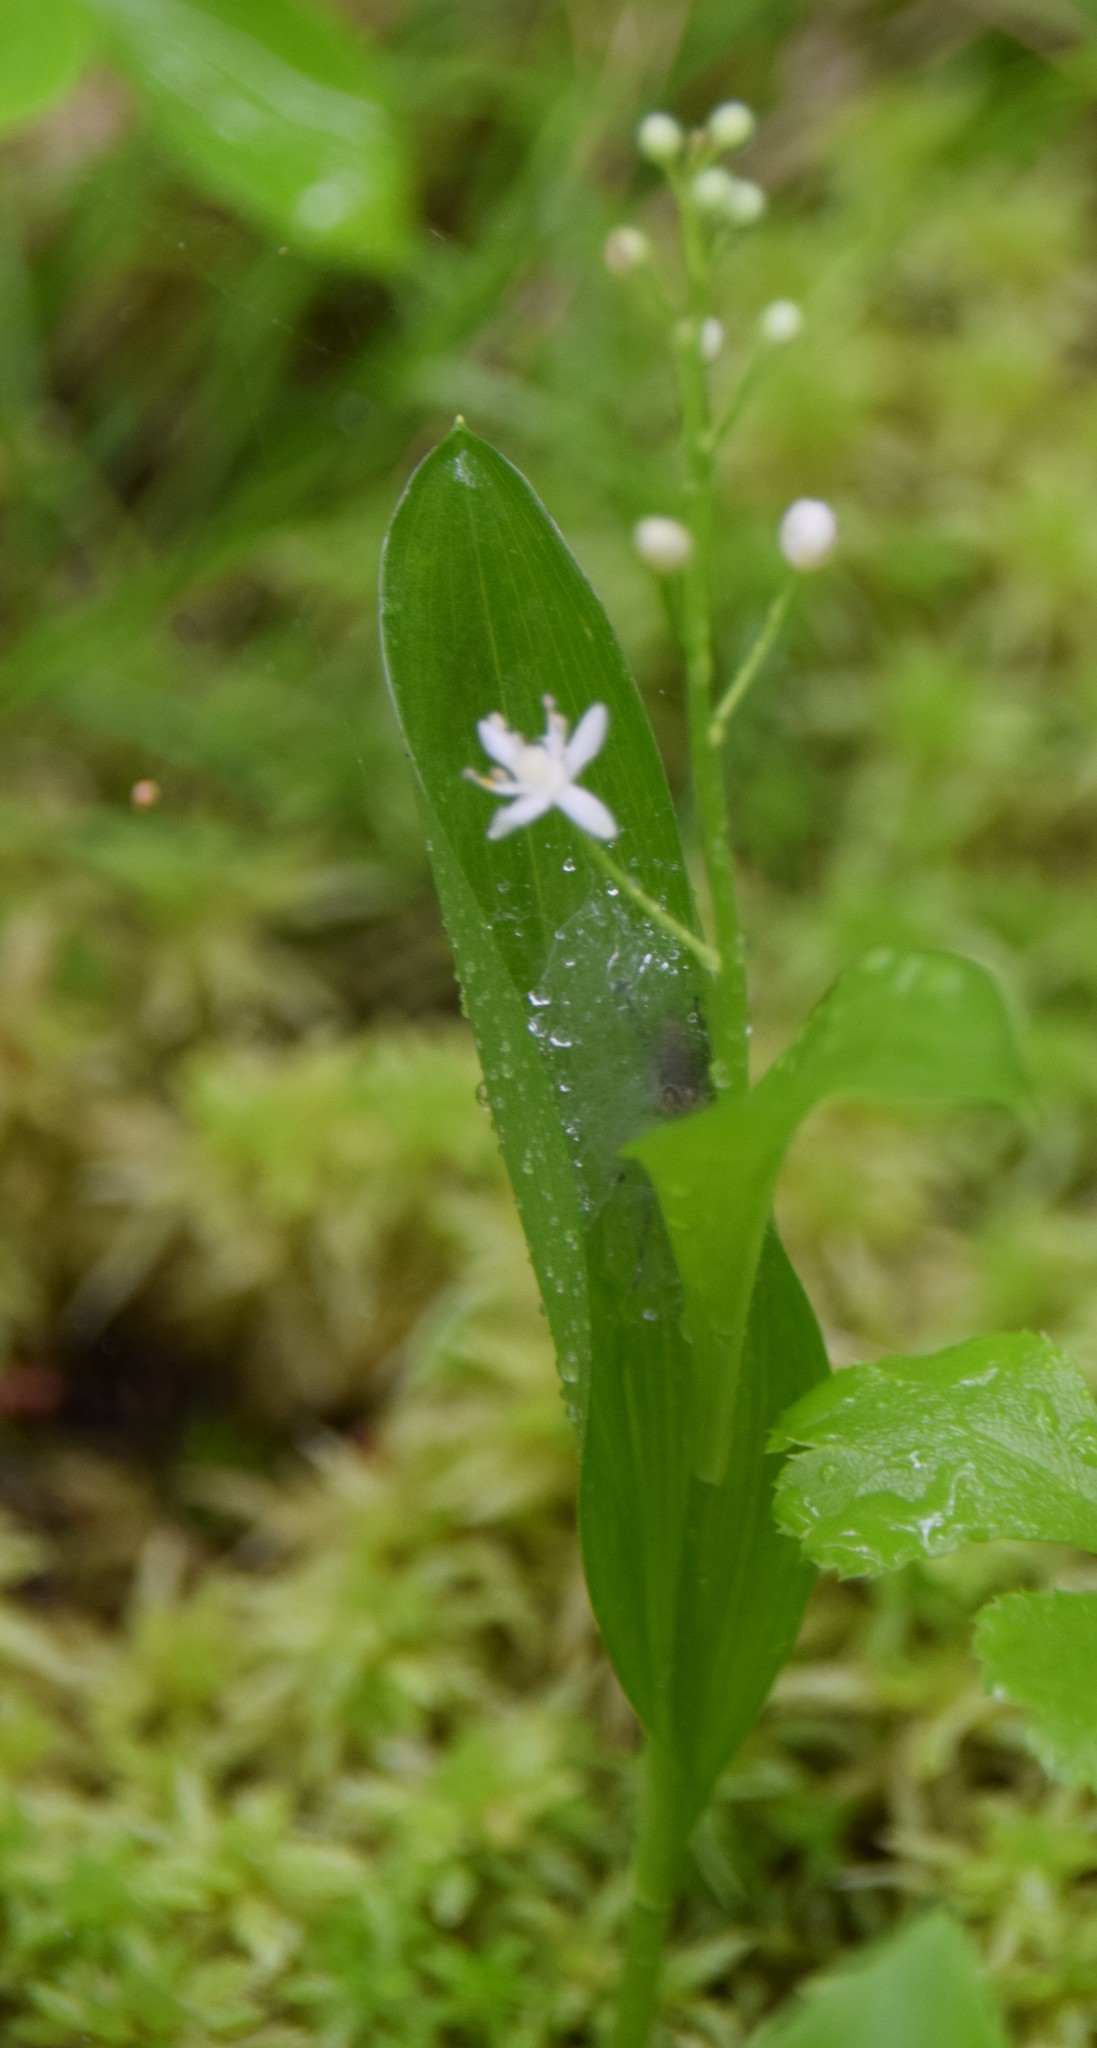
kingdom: Plantae
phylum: Tracheophyta
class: Liliopsida
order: Asparagales
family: Asparagaceae
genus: Maianthemum
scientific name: Maianthemum trifolium
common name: Swamp false solomon's seal
